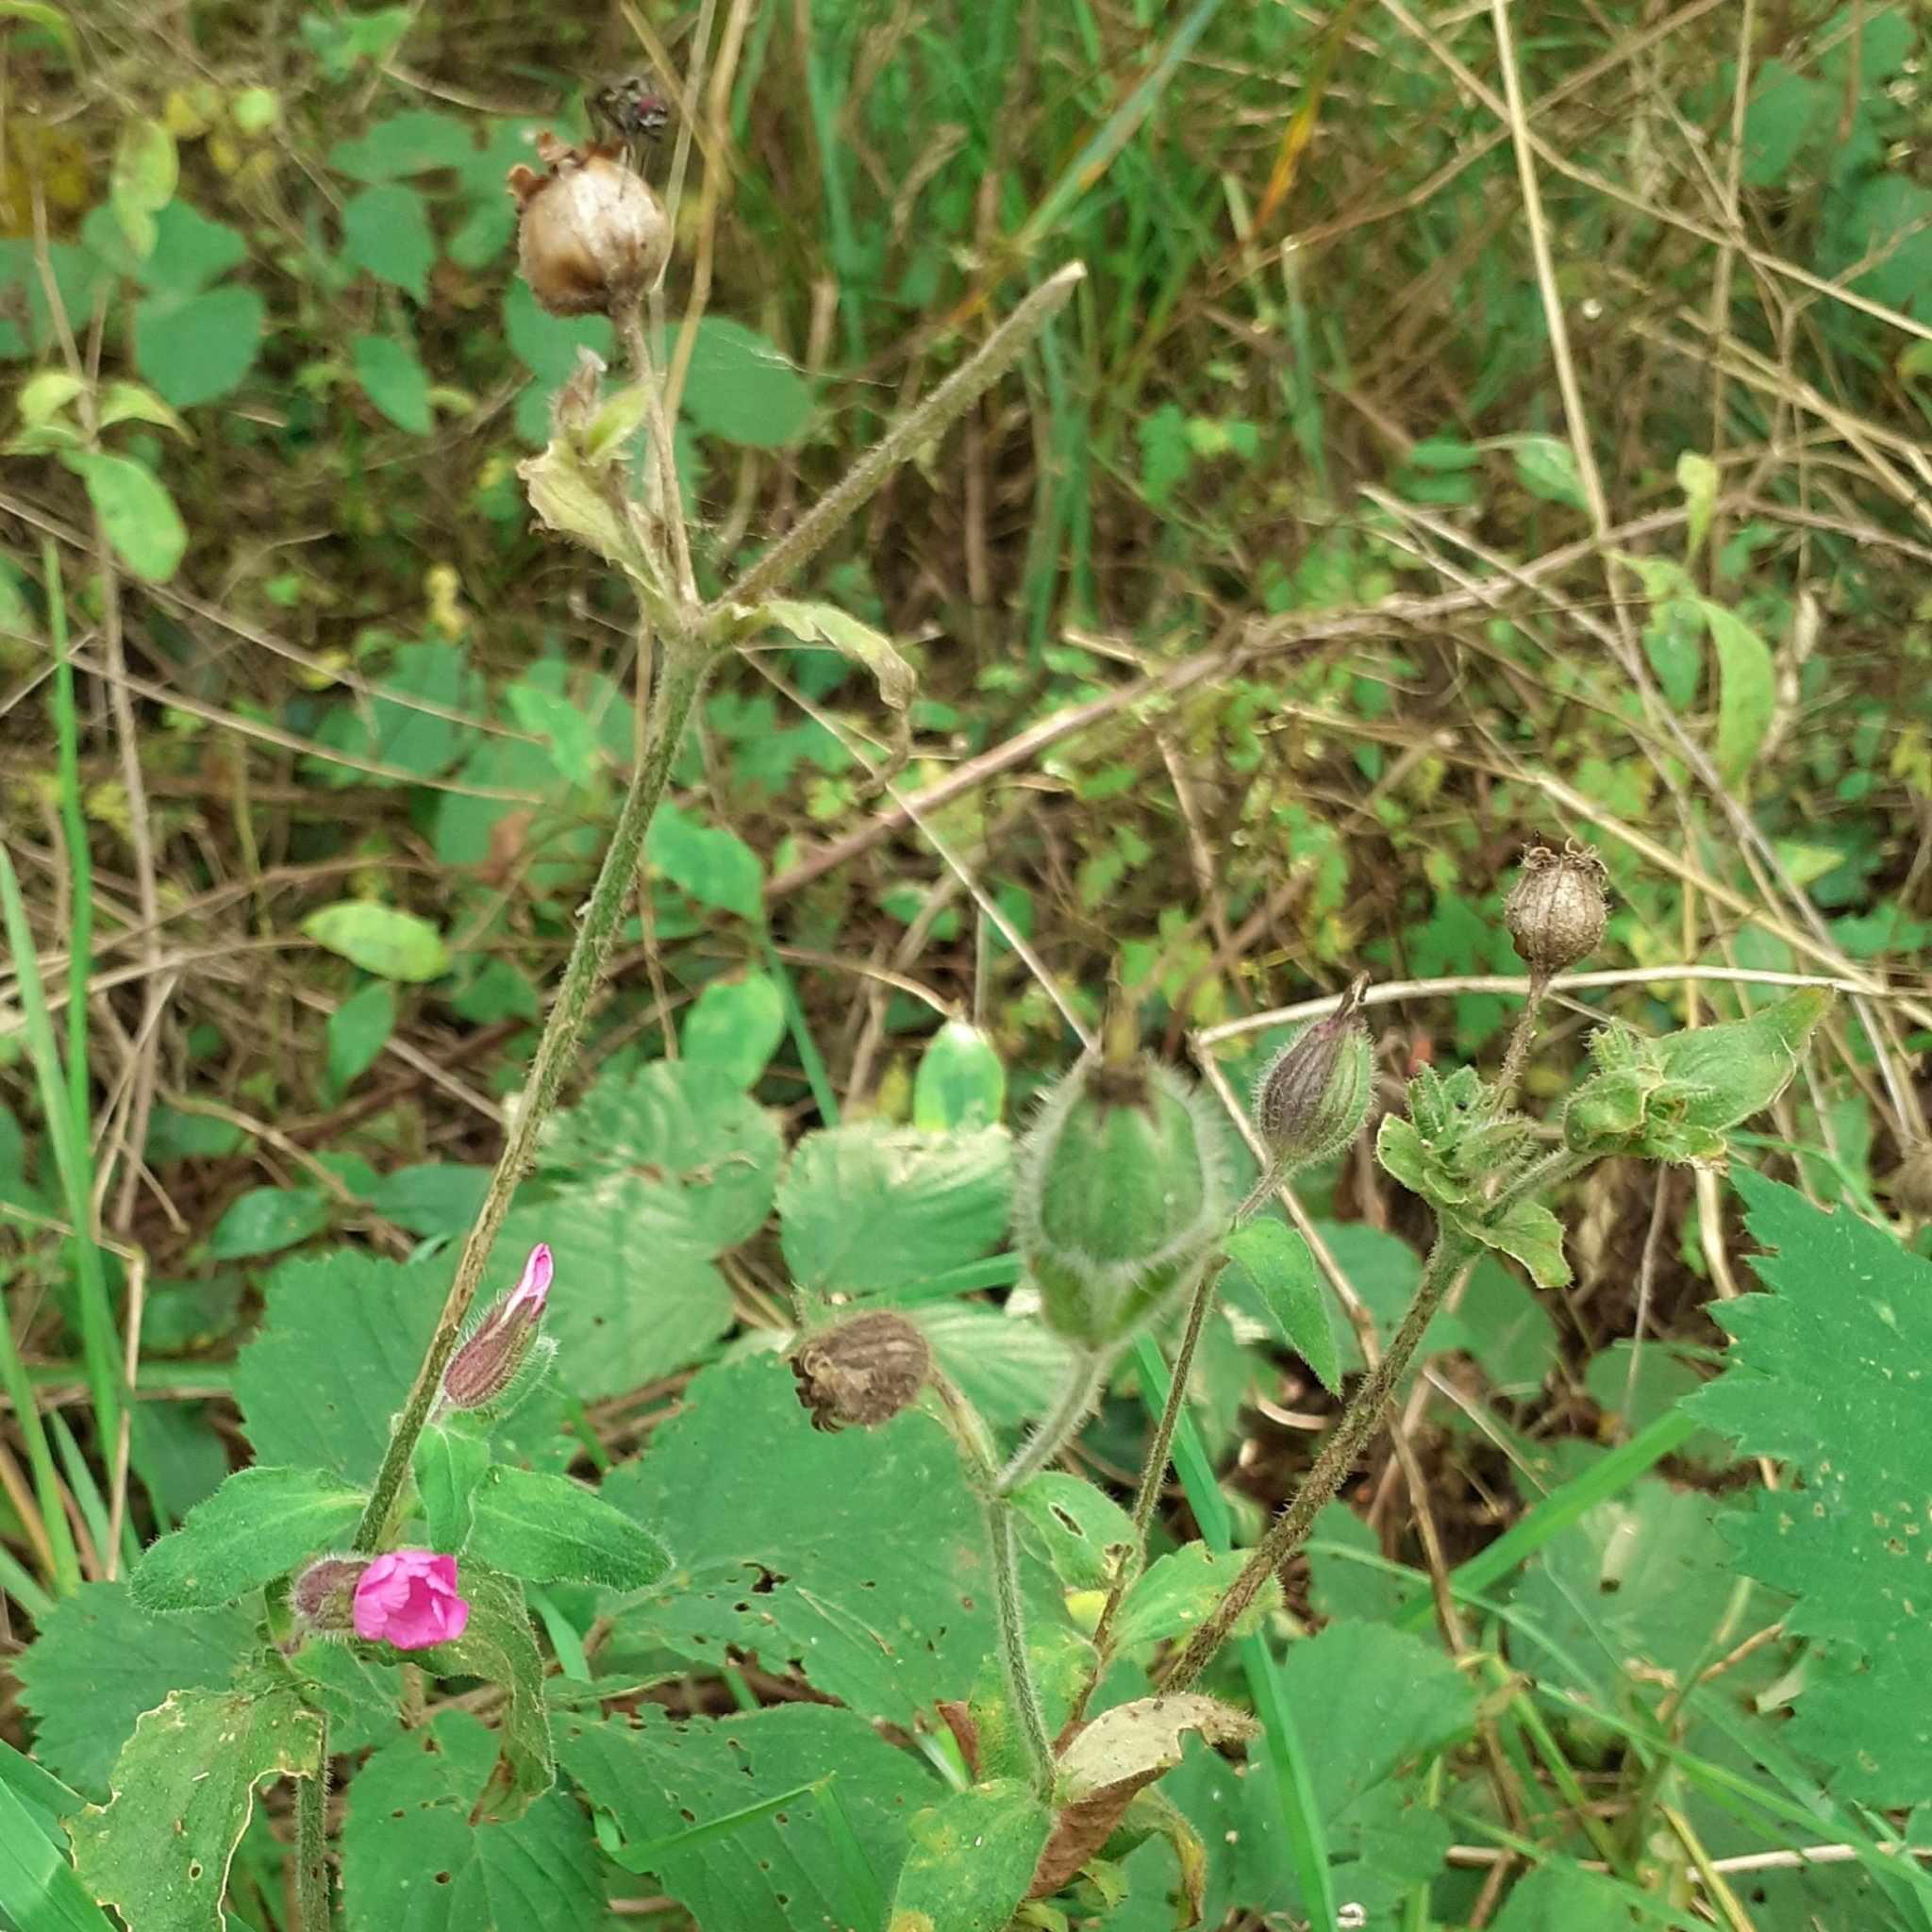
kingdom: Plantae
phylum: Tracheophyta
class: Magnoliopsida
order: Caryophyllales
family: Caryophyllaceae
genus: Silene
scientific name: Silene dioica
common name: Red campion
